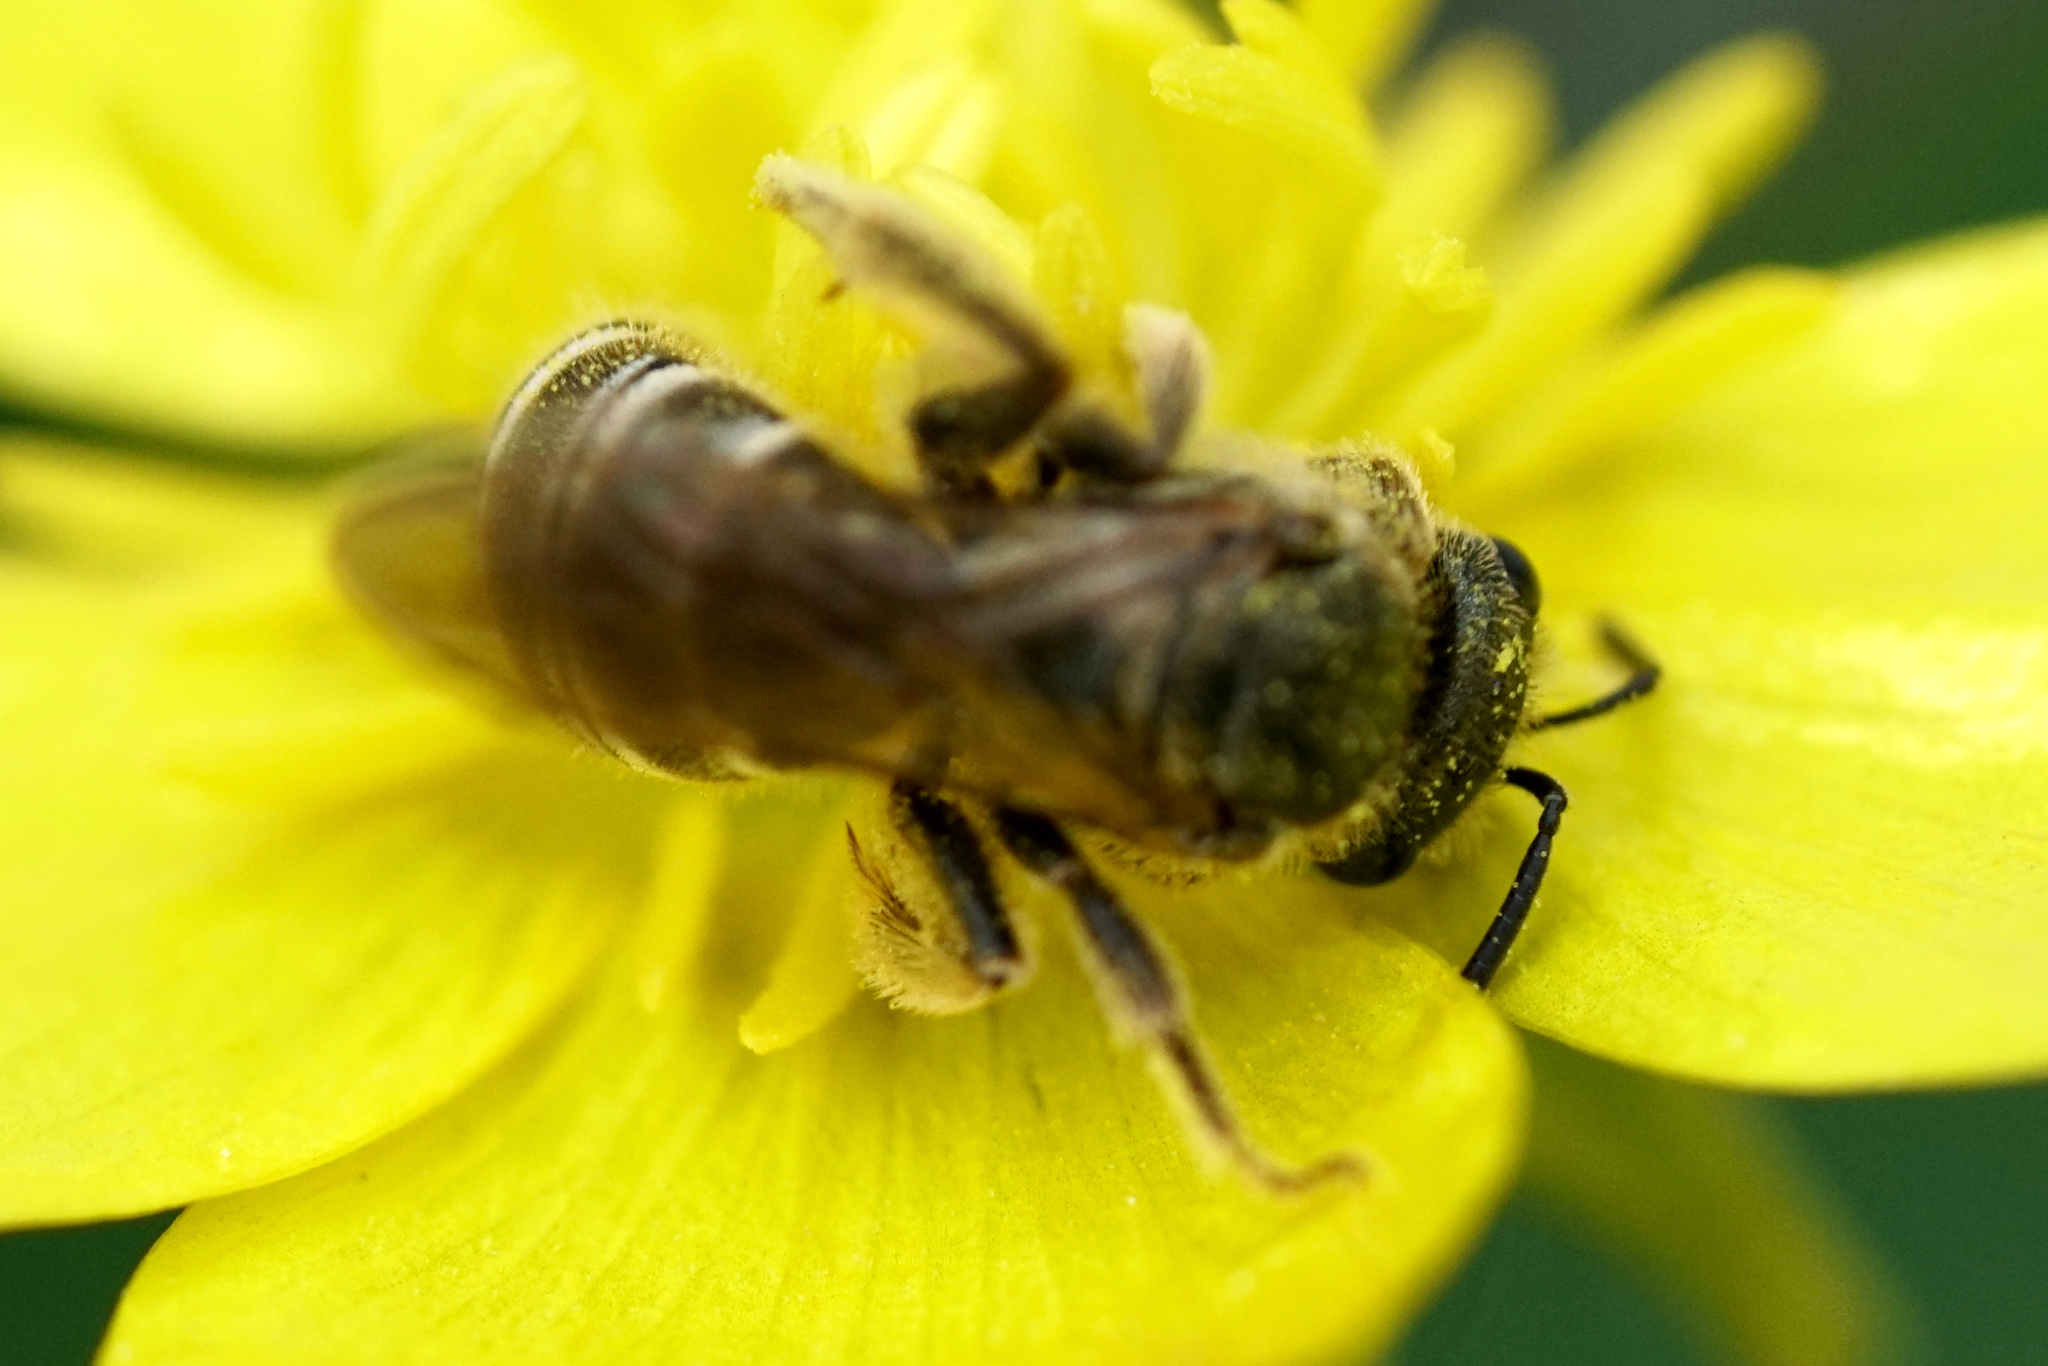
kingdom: Animalia
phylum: Arthropoda
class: Insecta
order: Hymenoptera
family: Halictidae
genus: Halictus
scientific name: Halictus confusus
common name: Southern bronze furrow bee
